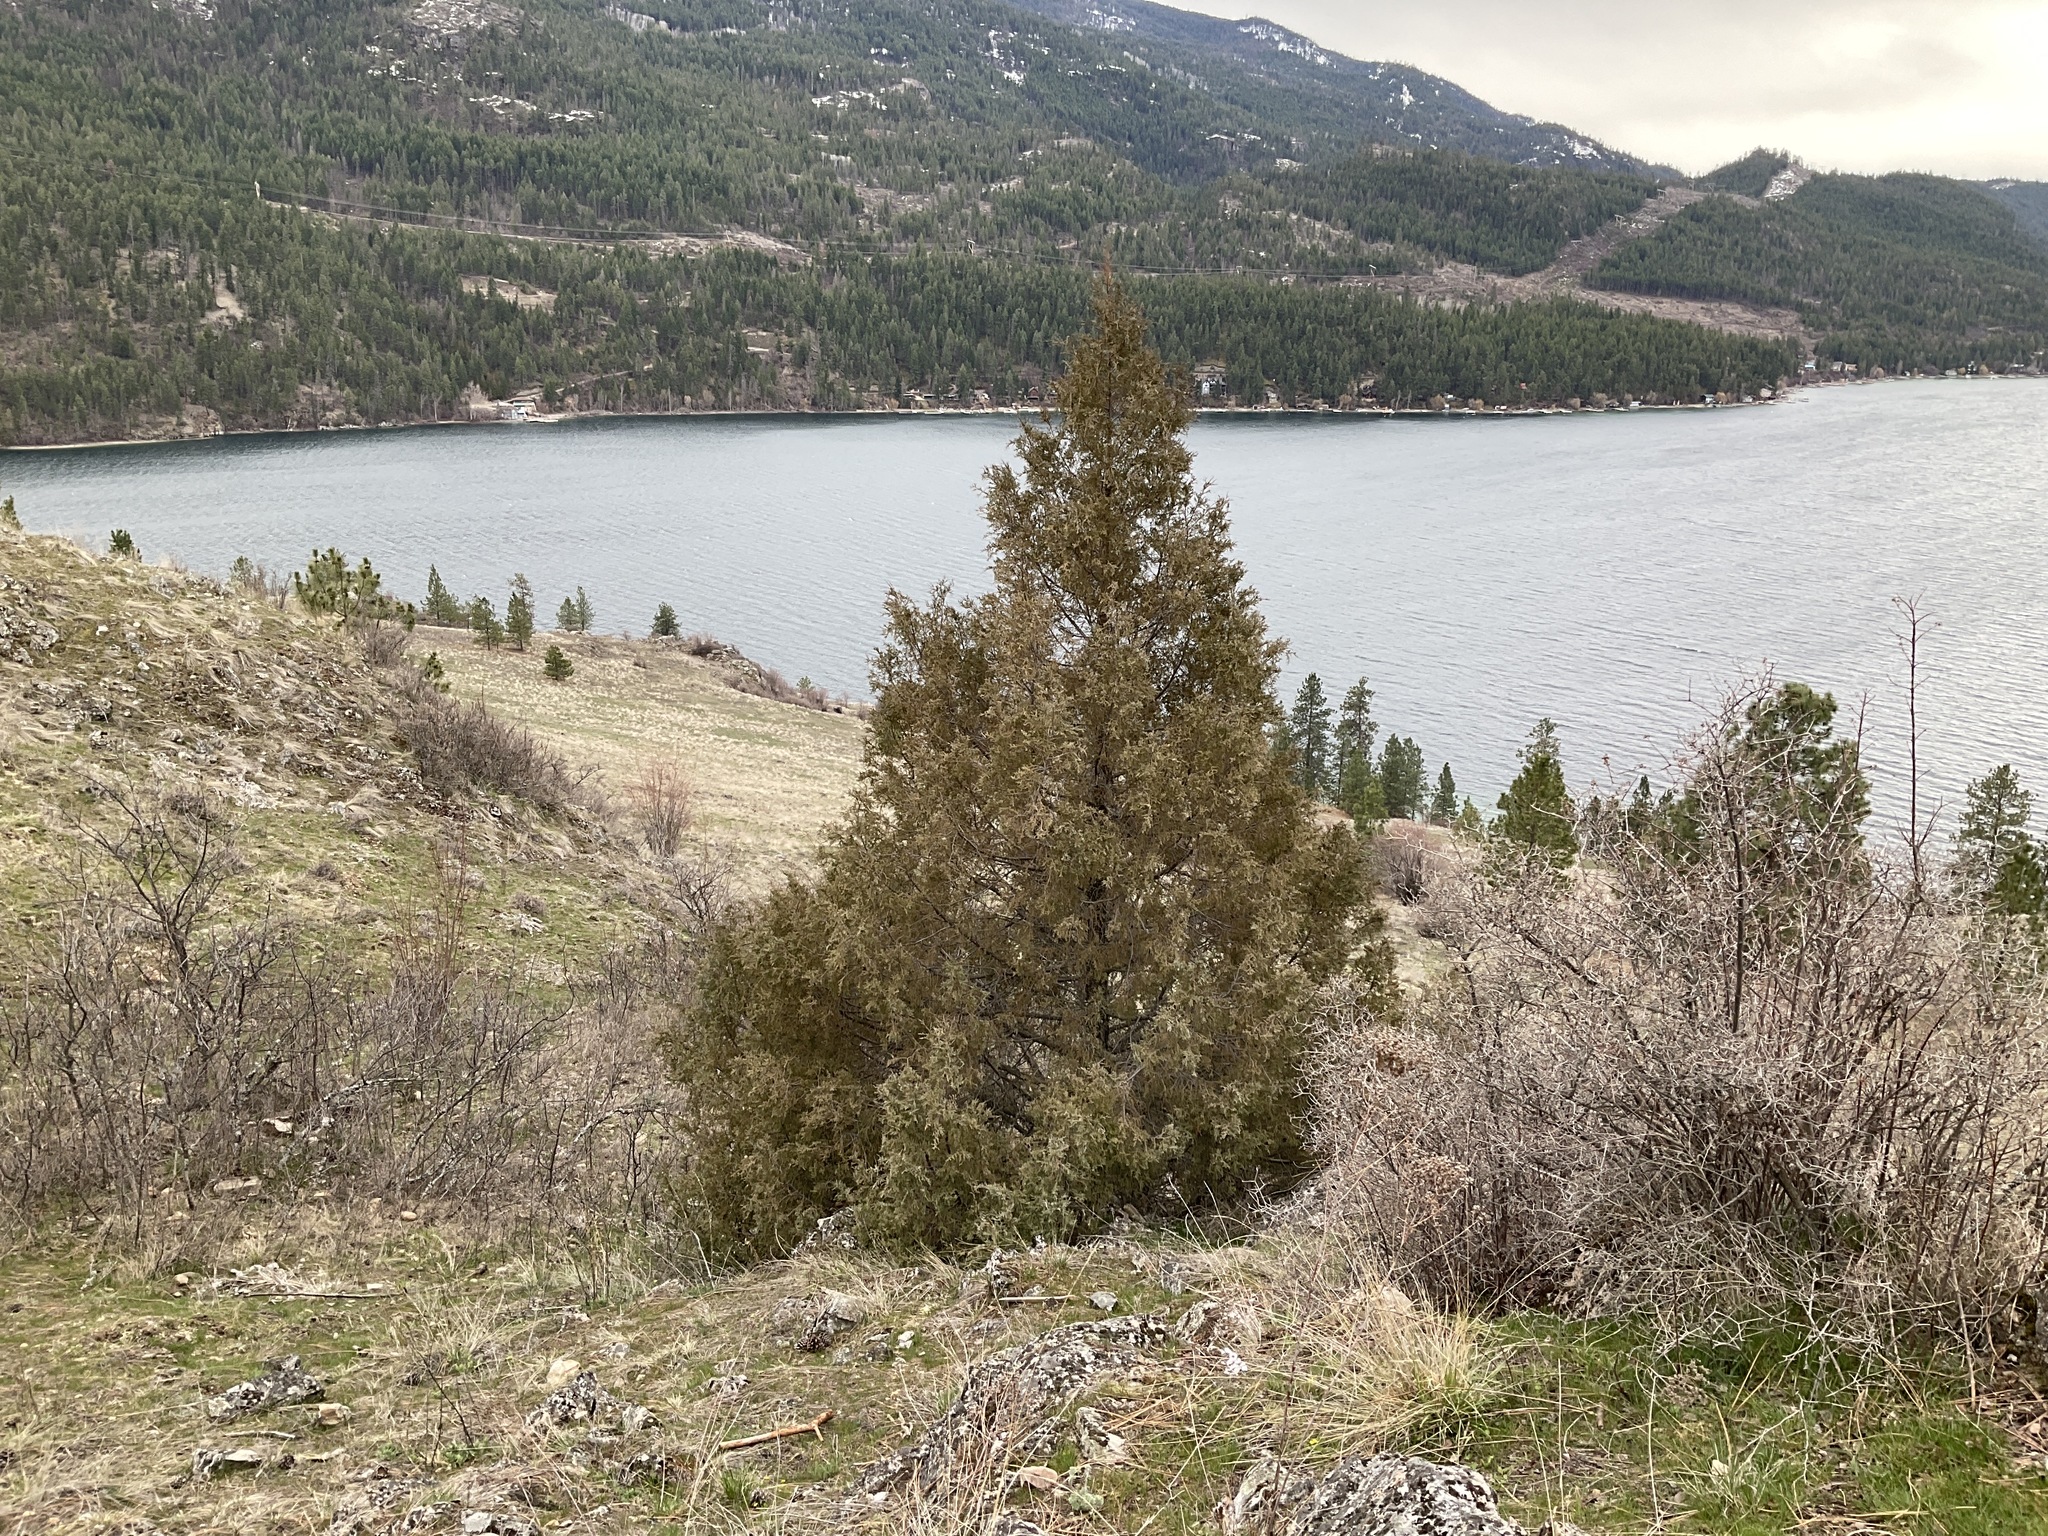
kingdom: Plantae
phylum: Tracheophyta
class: Pinopsida
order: Pinales
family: Cupressaceae
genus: Juniperus
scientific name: Juniperus scopulorum
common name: Rocky mountain juniper
